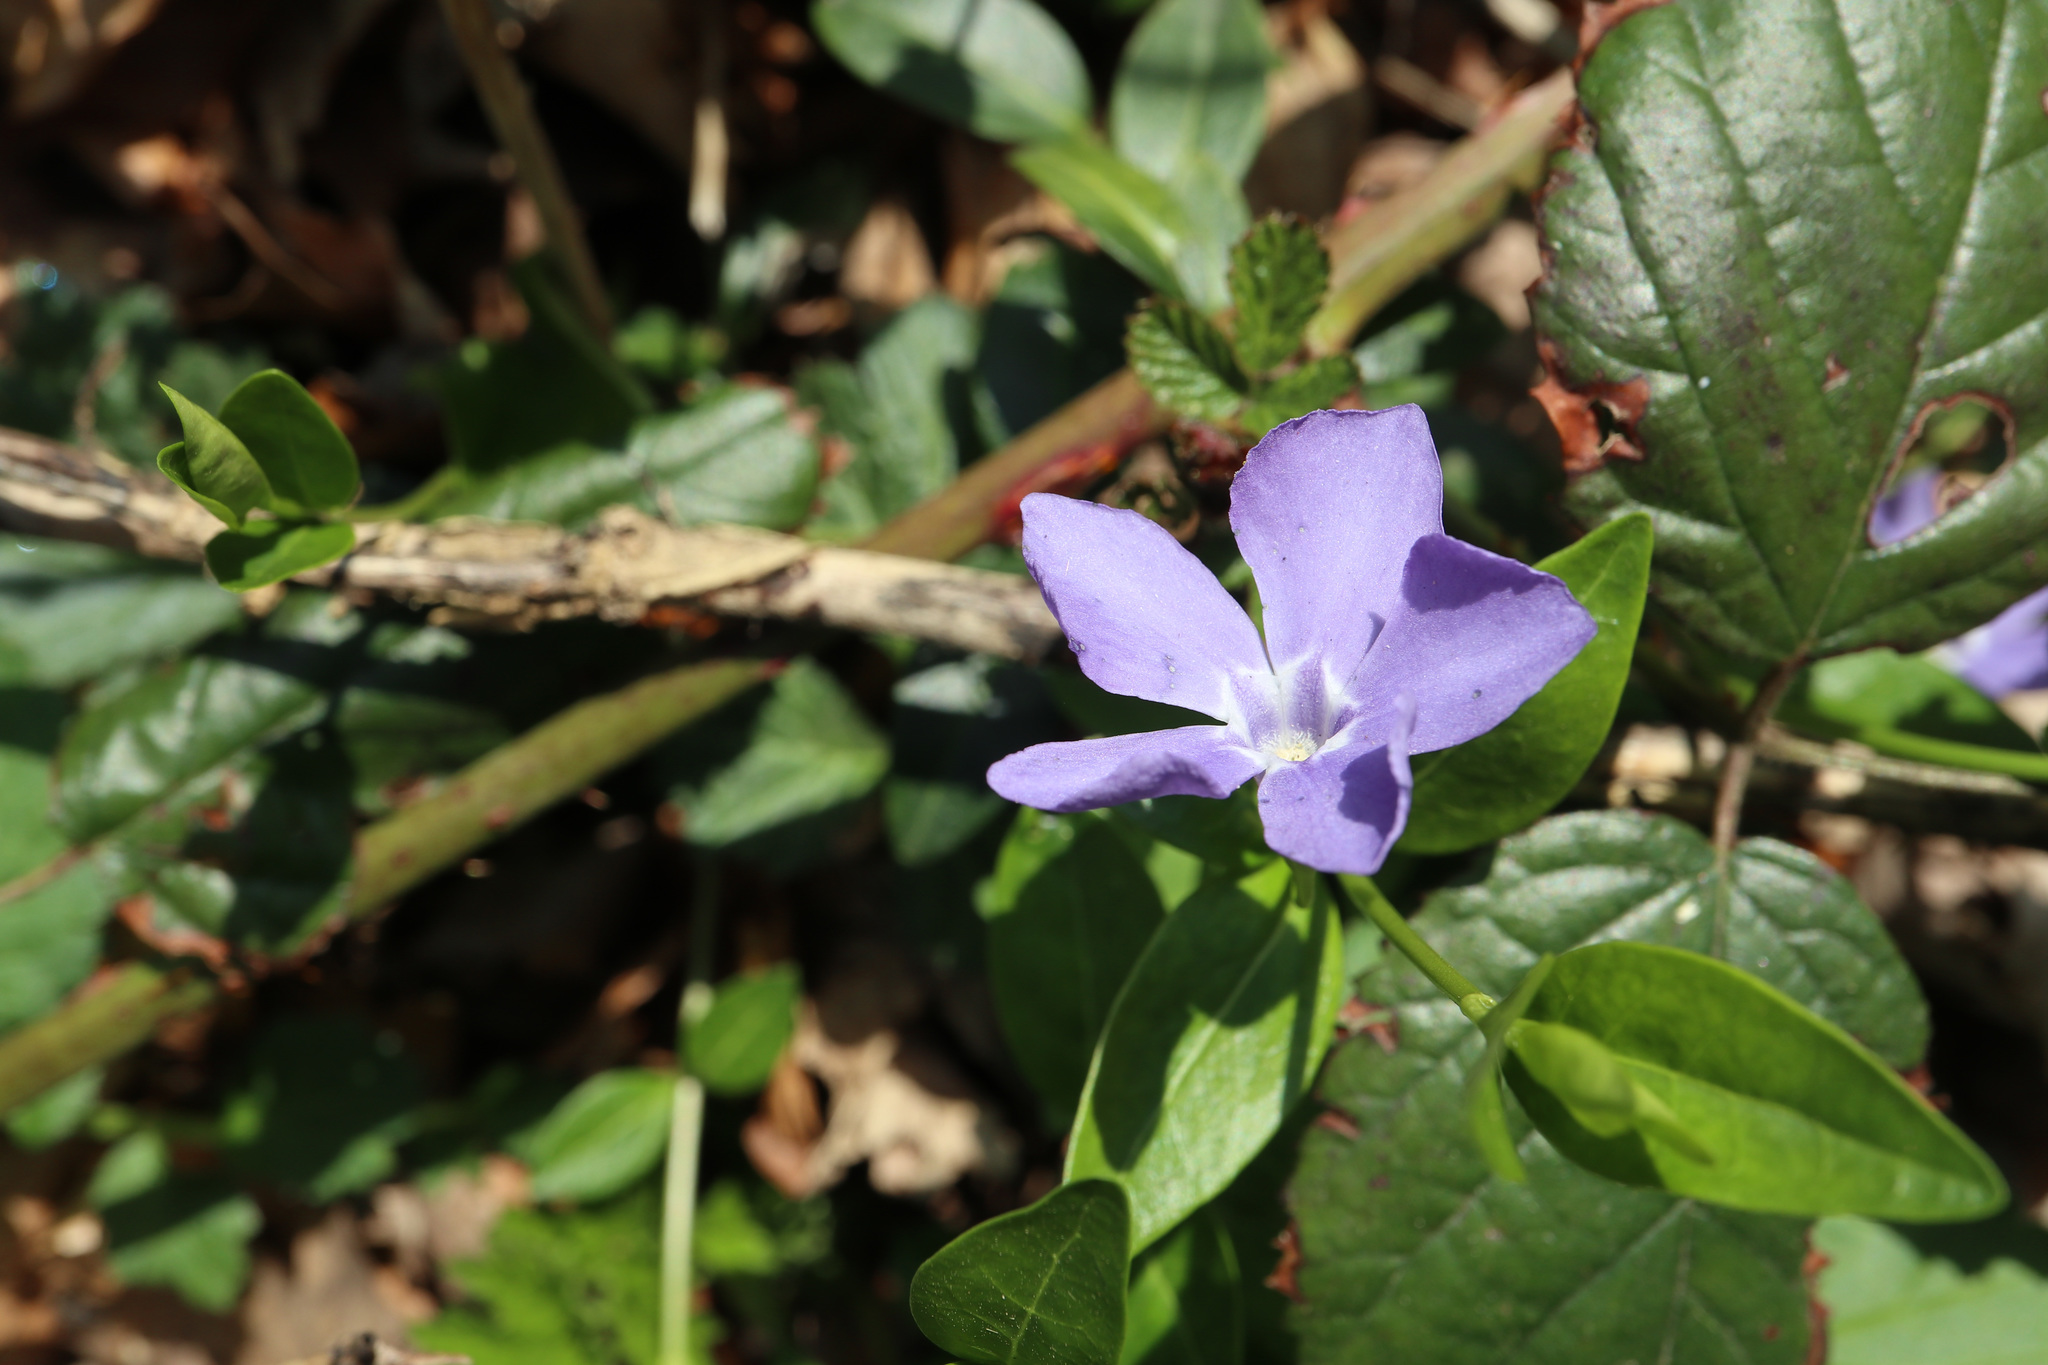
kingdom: Plantae
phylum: Tracheophyta
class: Magnoliopsida
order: Gentianales
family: Apocynaceae
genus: Vinca
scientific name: Vinca minor
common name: Lesser periwinkle
